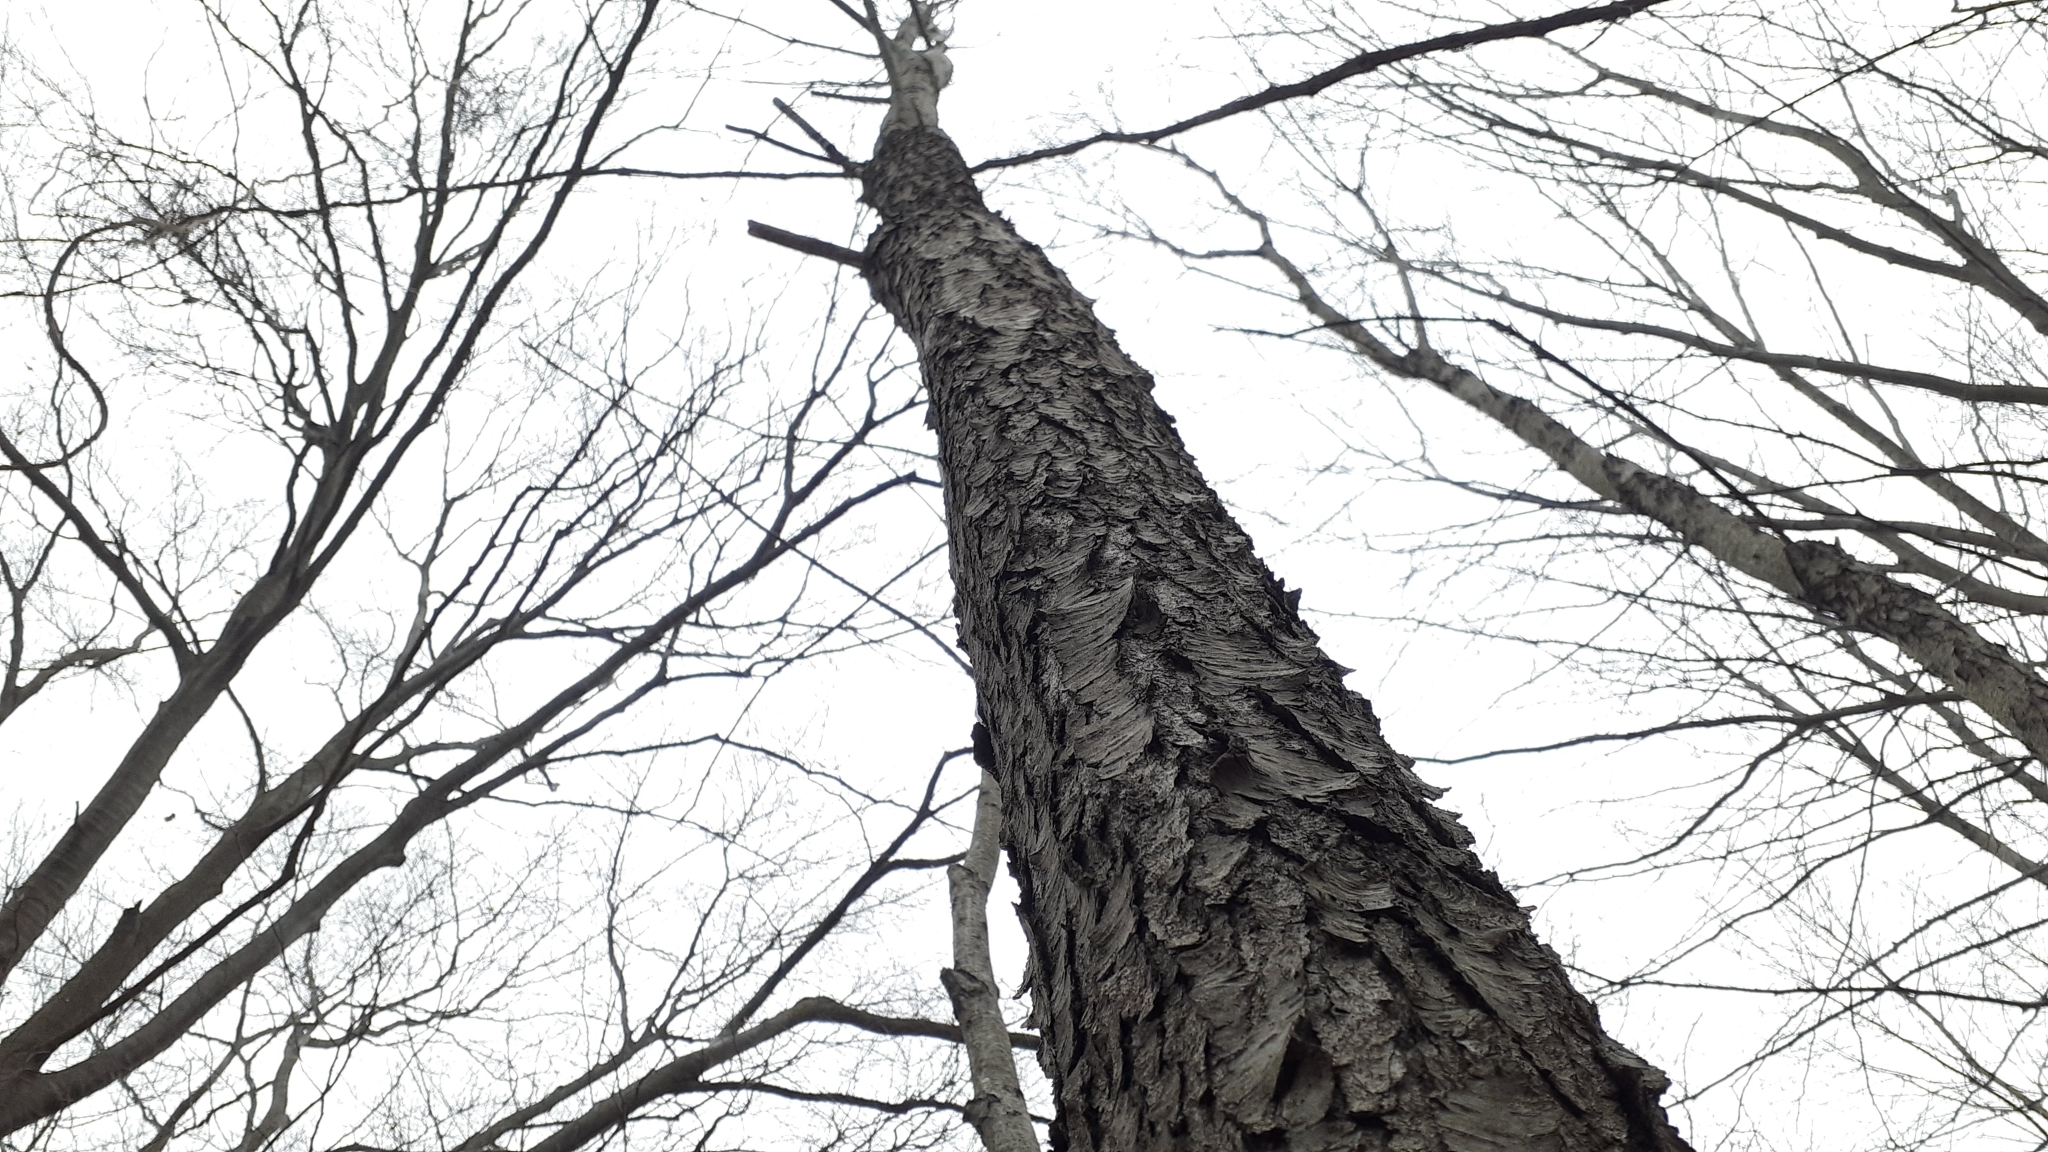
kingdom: Plantae
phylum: Tracheophyta
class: Magnoliopsida
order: Rosales
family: Rosaceae
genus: Prunus
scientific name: Prunus serotina
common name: Black cherry
